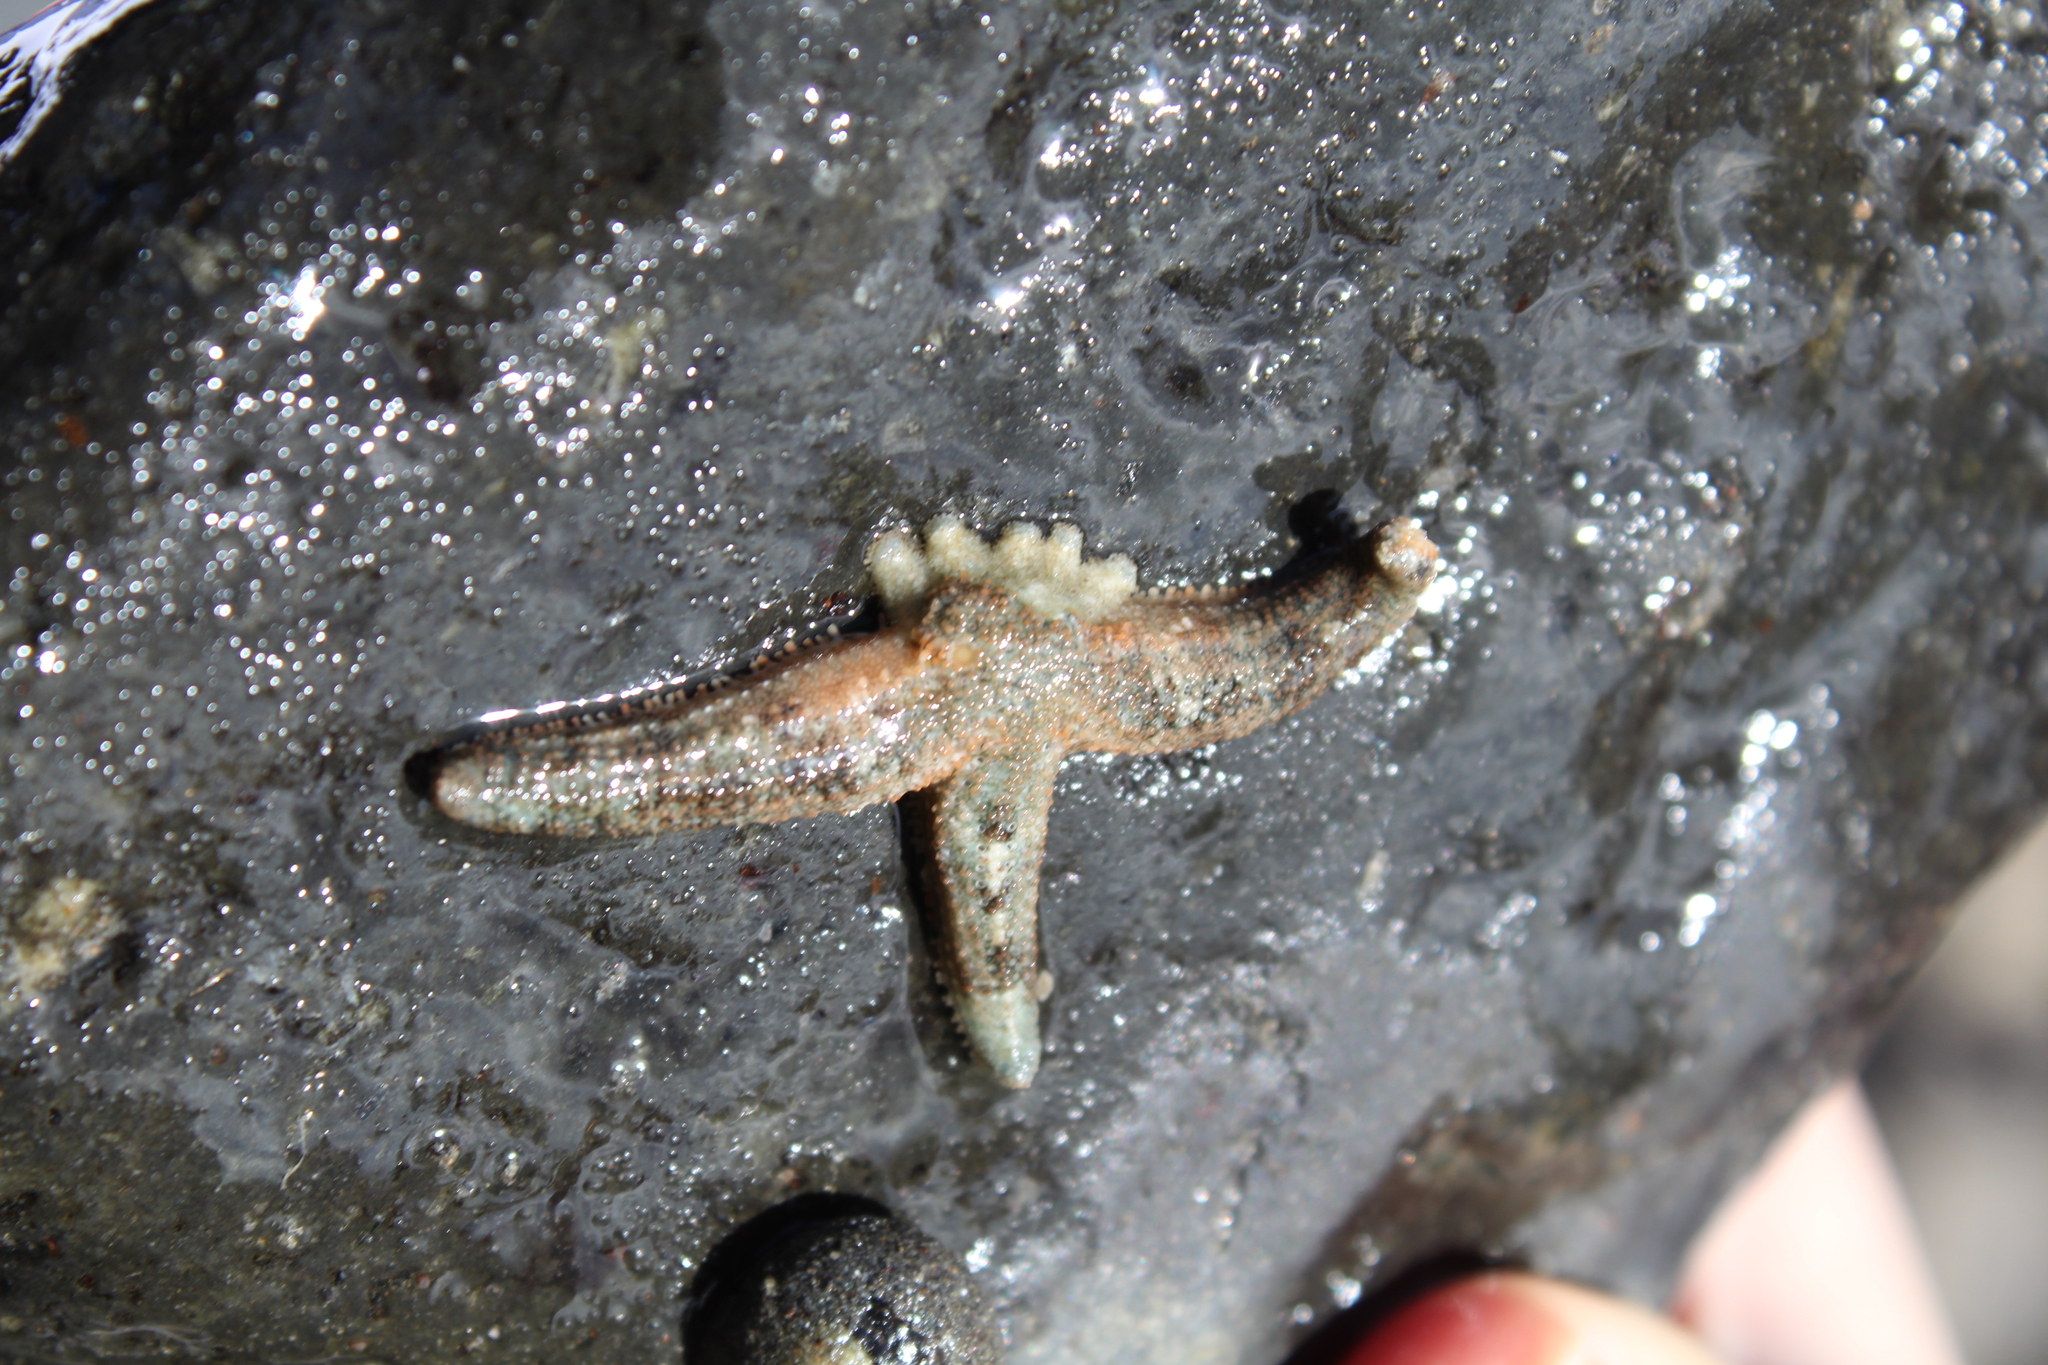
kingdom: Animalia
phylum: Echinodermata
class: Asteroidea
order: Forcipulatida
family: Stichasteridae
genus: Allostichaster
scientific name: Allostichaster polyplax
